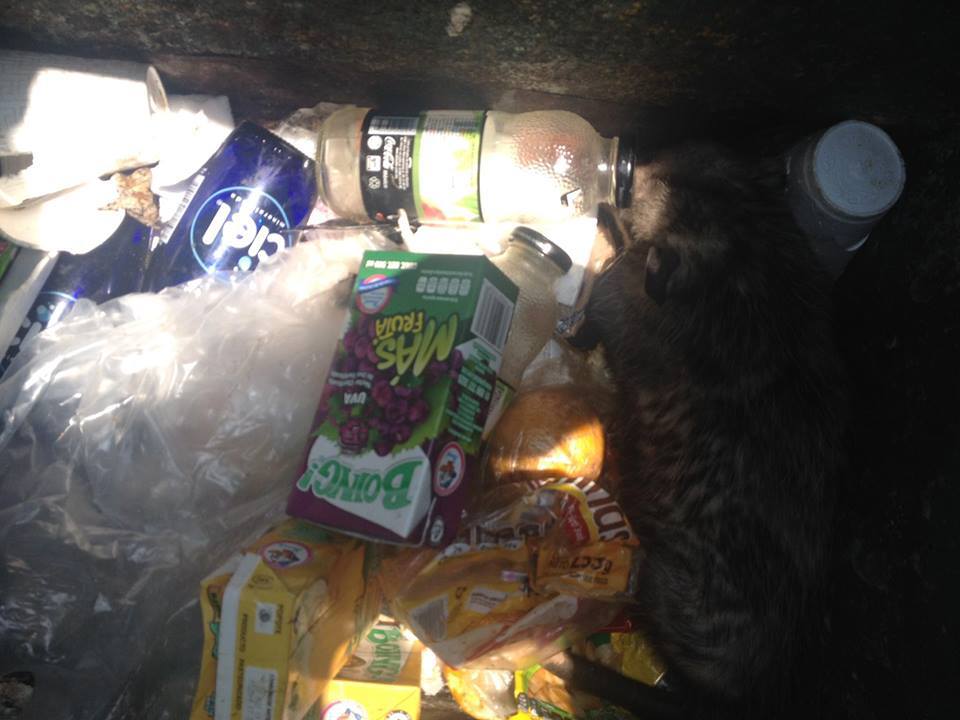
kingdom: Animalia
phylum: Chordata
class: Mammalia
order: Didelphimorphia
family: Didelphidae
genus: Didelphis
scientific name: Didelphis virginiana
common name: Virginia opossum
